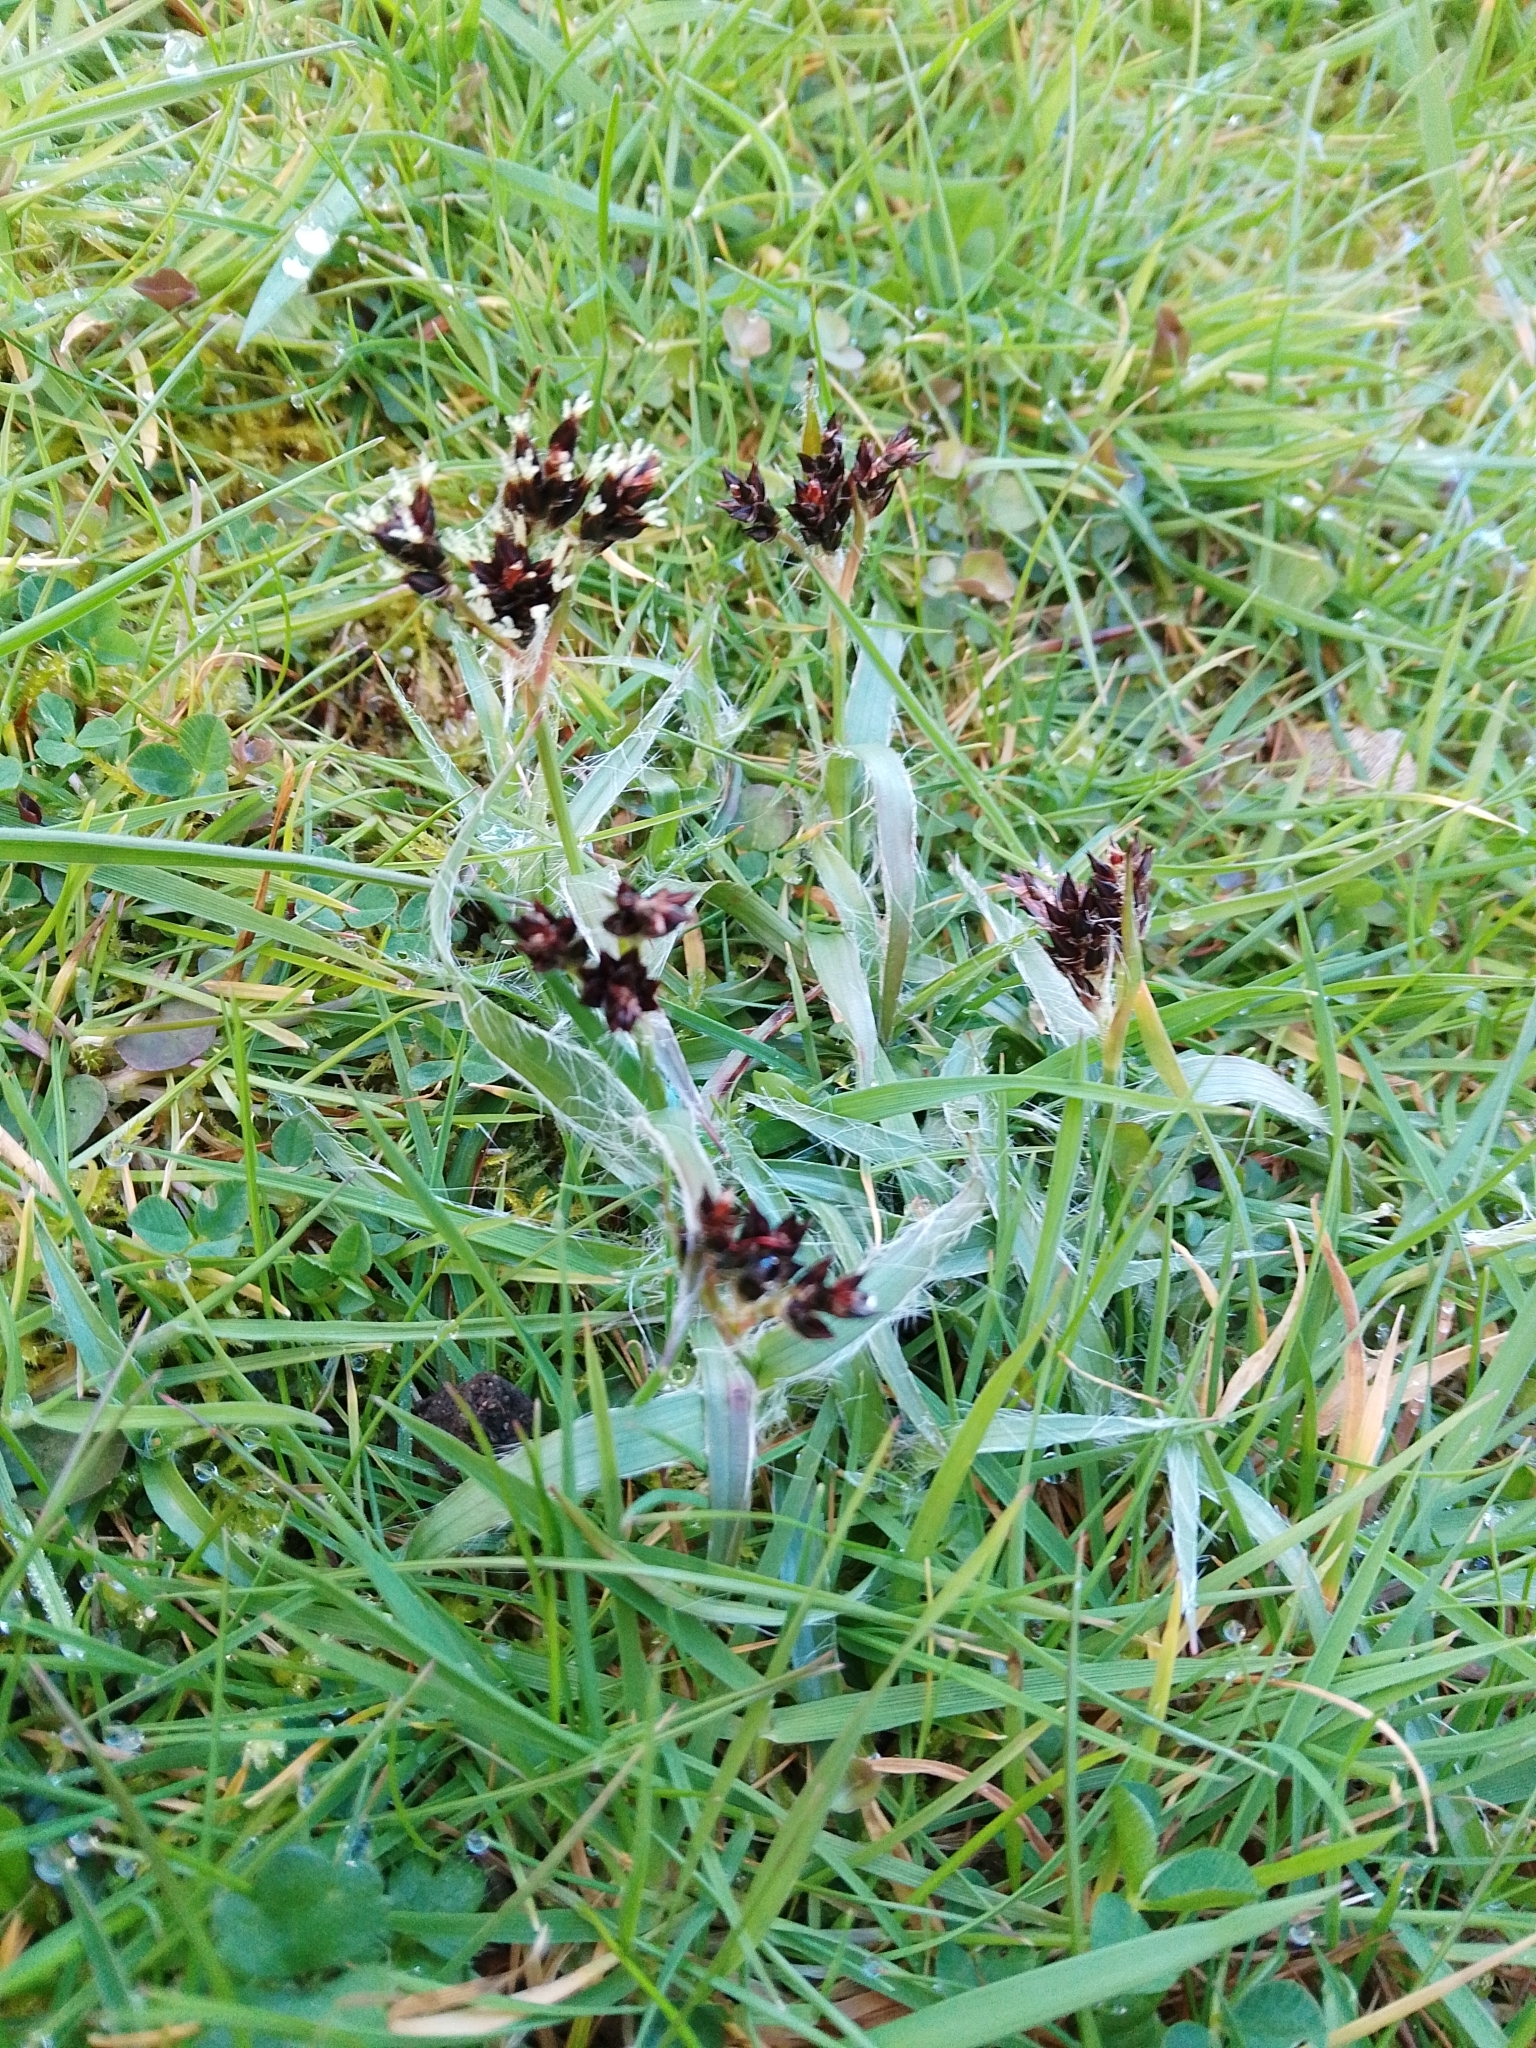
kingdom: Plantae
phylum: Tracheophyta
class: Liliopsida
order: Poales
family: Juncaceae
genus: Luzula
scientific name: Luzula campestris
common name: Field wood-rush
